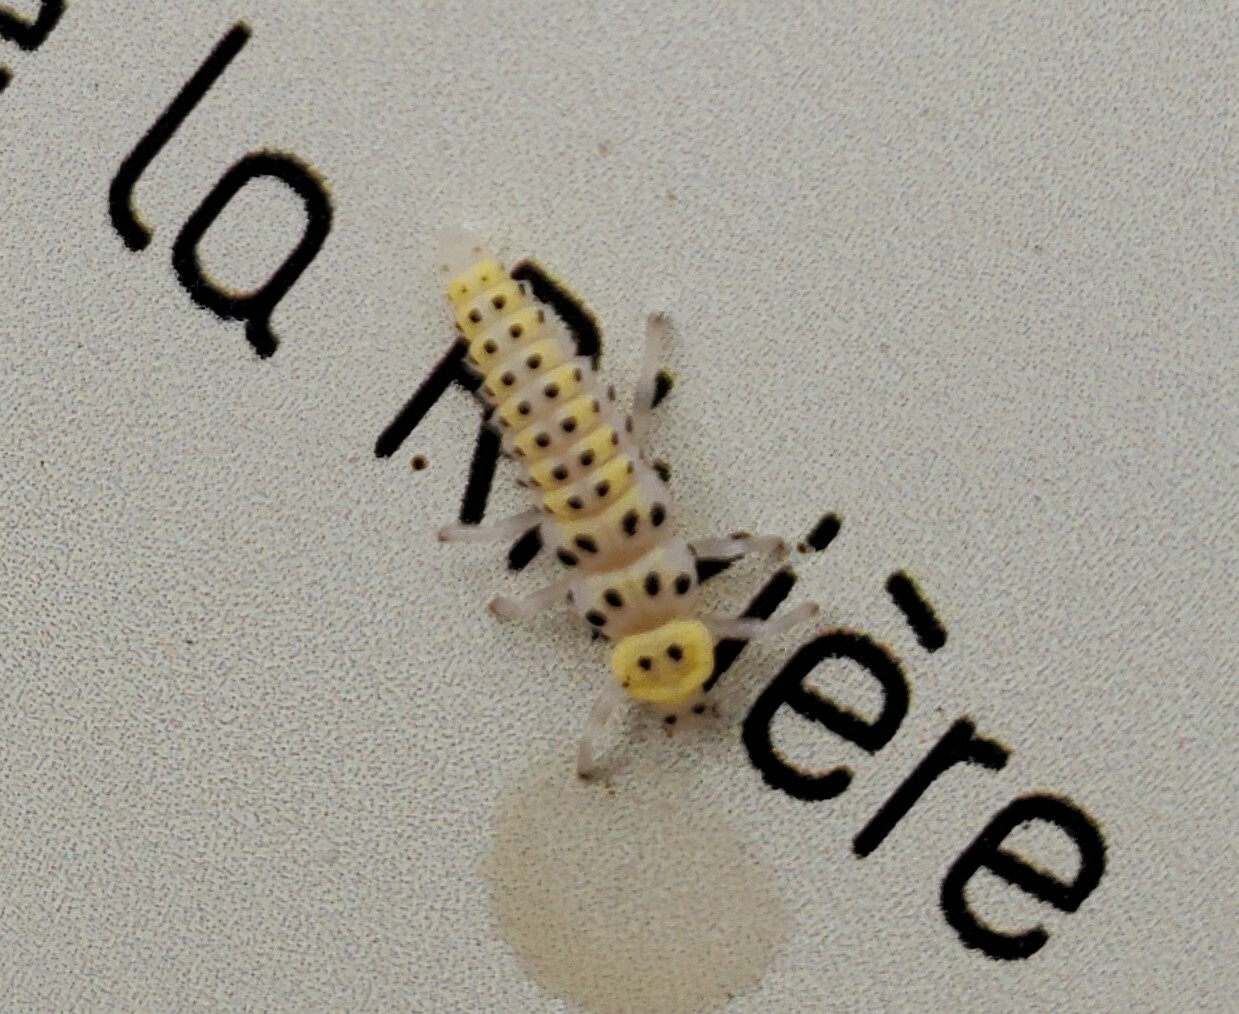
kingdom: Animalia
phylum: Arthropoda
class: Insecta
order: Coleoptera
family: Coccinellidae
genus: Vibidia
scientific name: Vibidia duodecimguttata
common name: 12-spot ladybird
